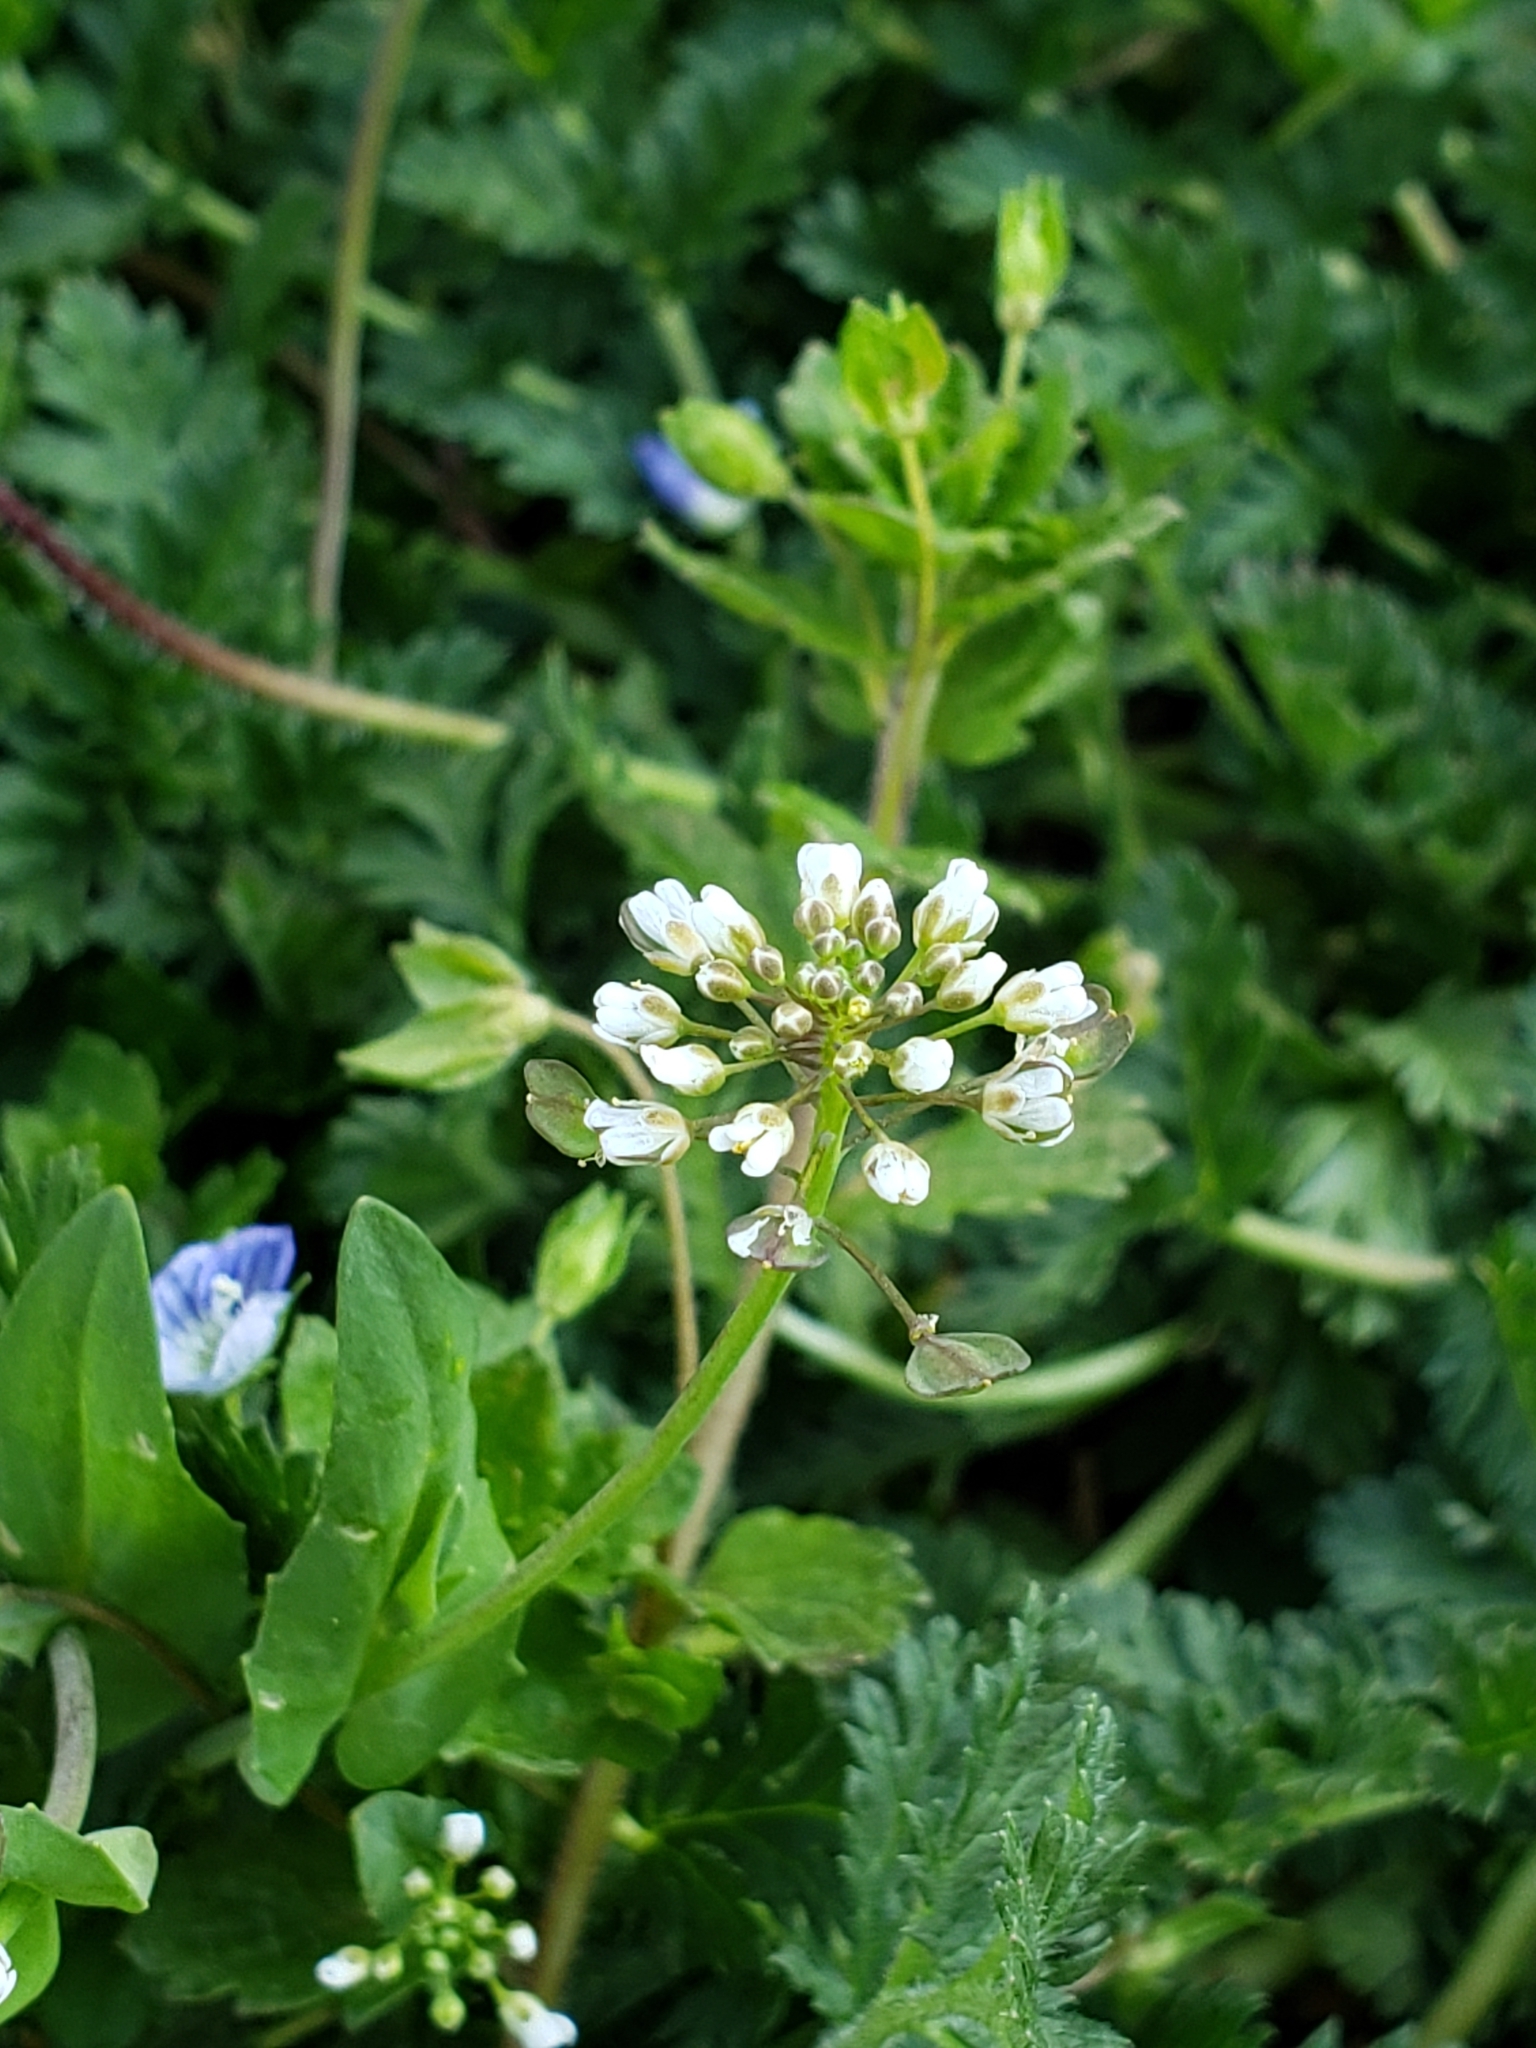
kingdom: Plantae
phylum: Tracheophyta
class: Magnoliopsida
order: Brassicales
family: Brassicaceae
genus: Noccaea
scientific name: Noccaea perfoliata
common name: Perfoliate pennycress
